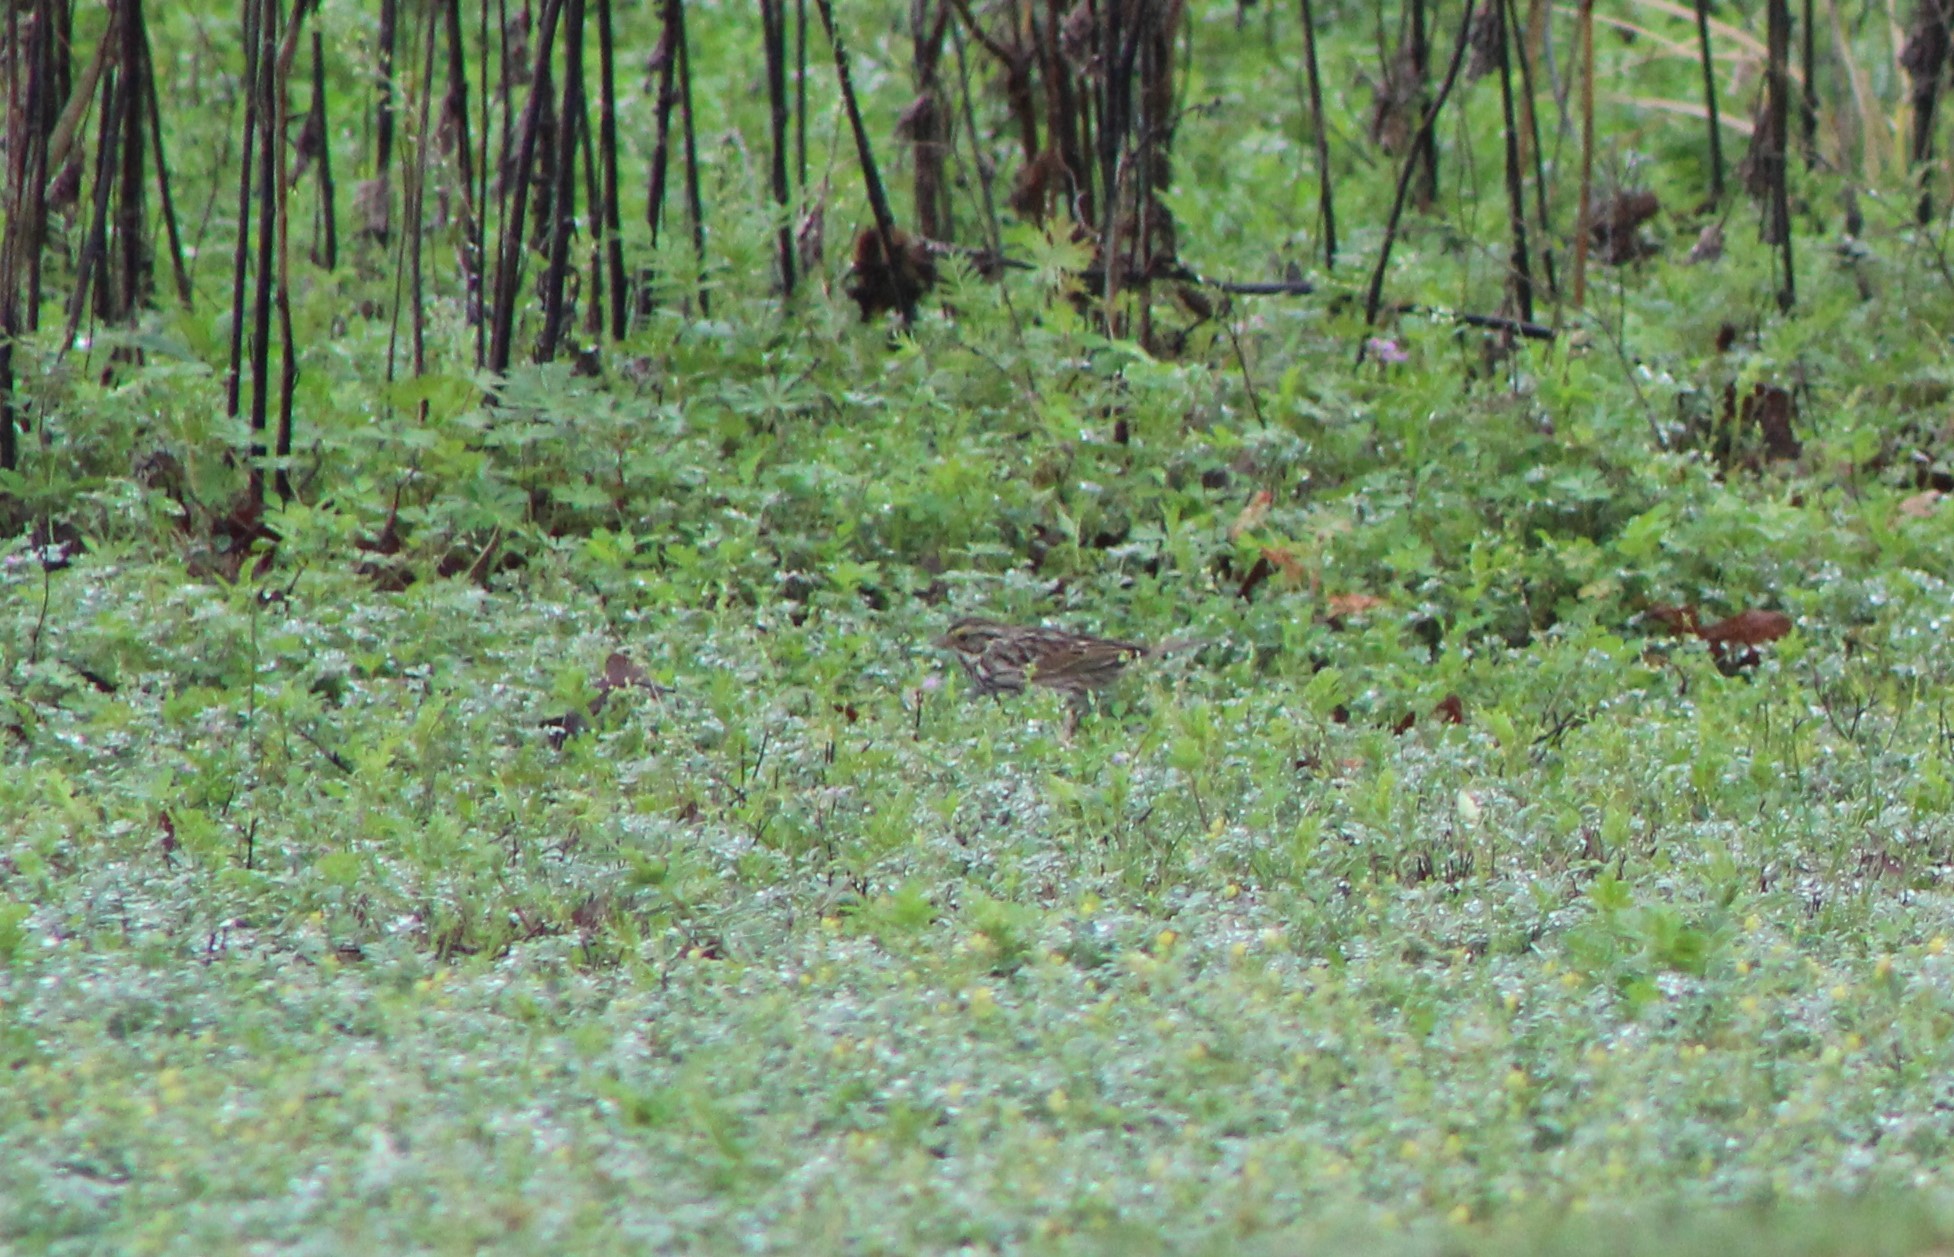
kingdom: Animalia
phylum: Chordata
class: Aves
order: Passeriformes
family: Passerellidae
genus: Passerculus
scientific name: Passerculus sandwichensis
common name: Savannah sparrow
